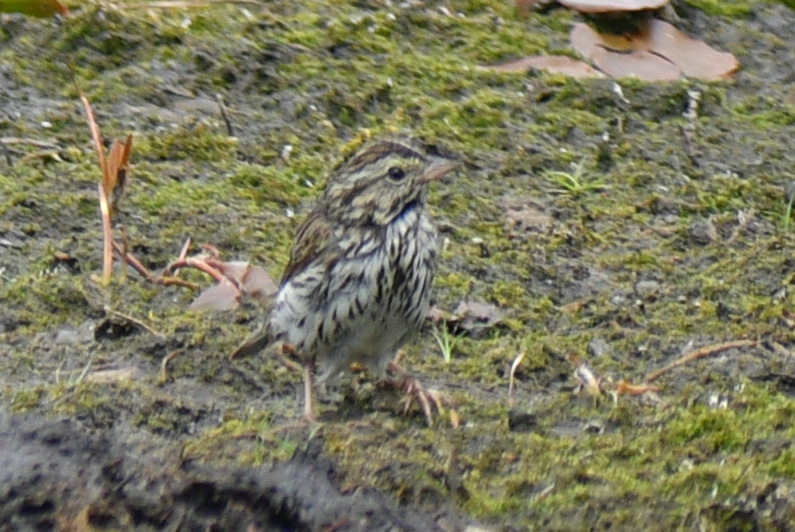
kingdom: Animalia
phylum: Chordata
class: Aves
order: Passeriformes
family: Passerellidae
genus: Passerculus
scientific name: Passerculus sandwichensis
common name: Savannah sparrow
